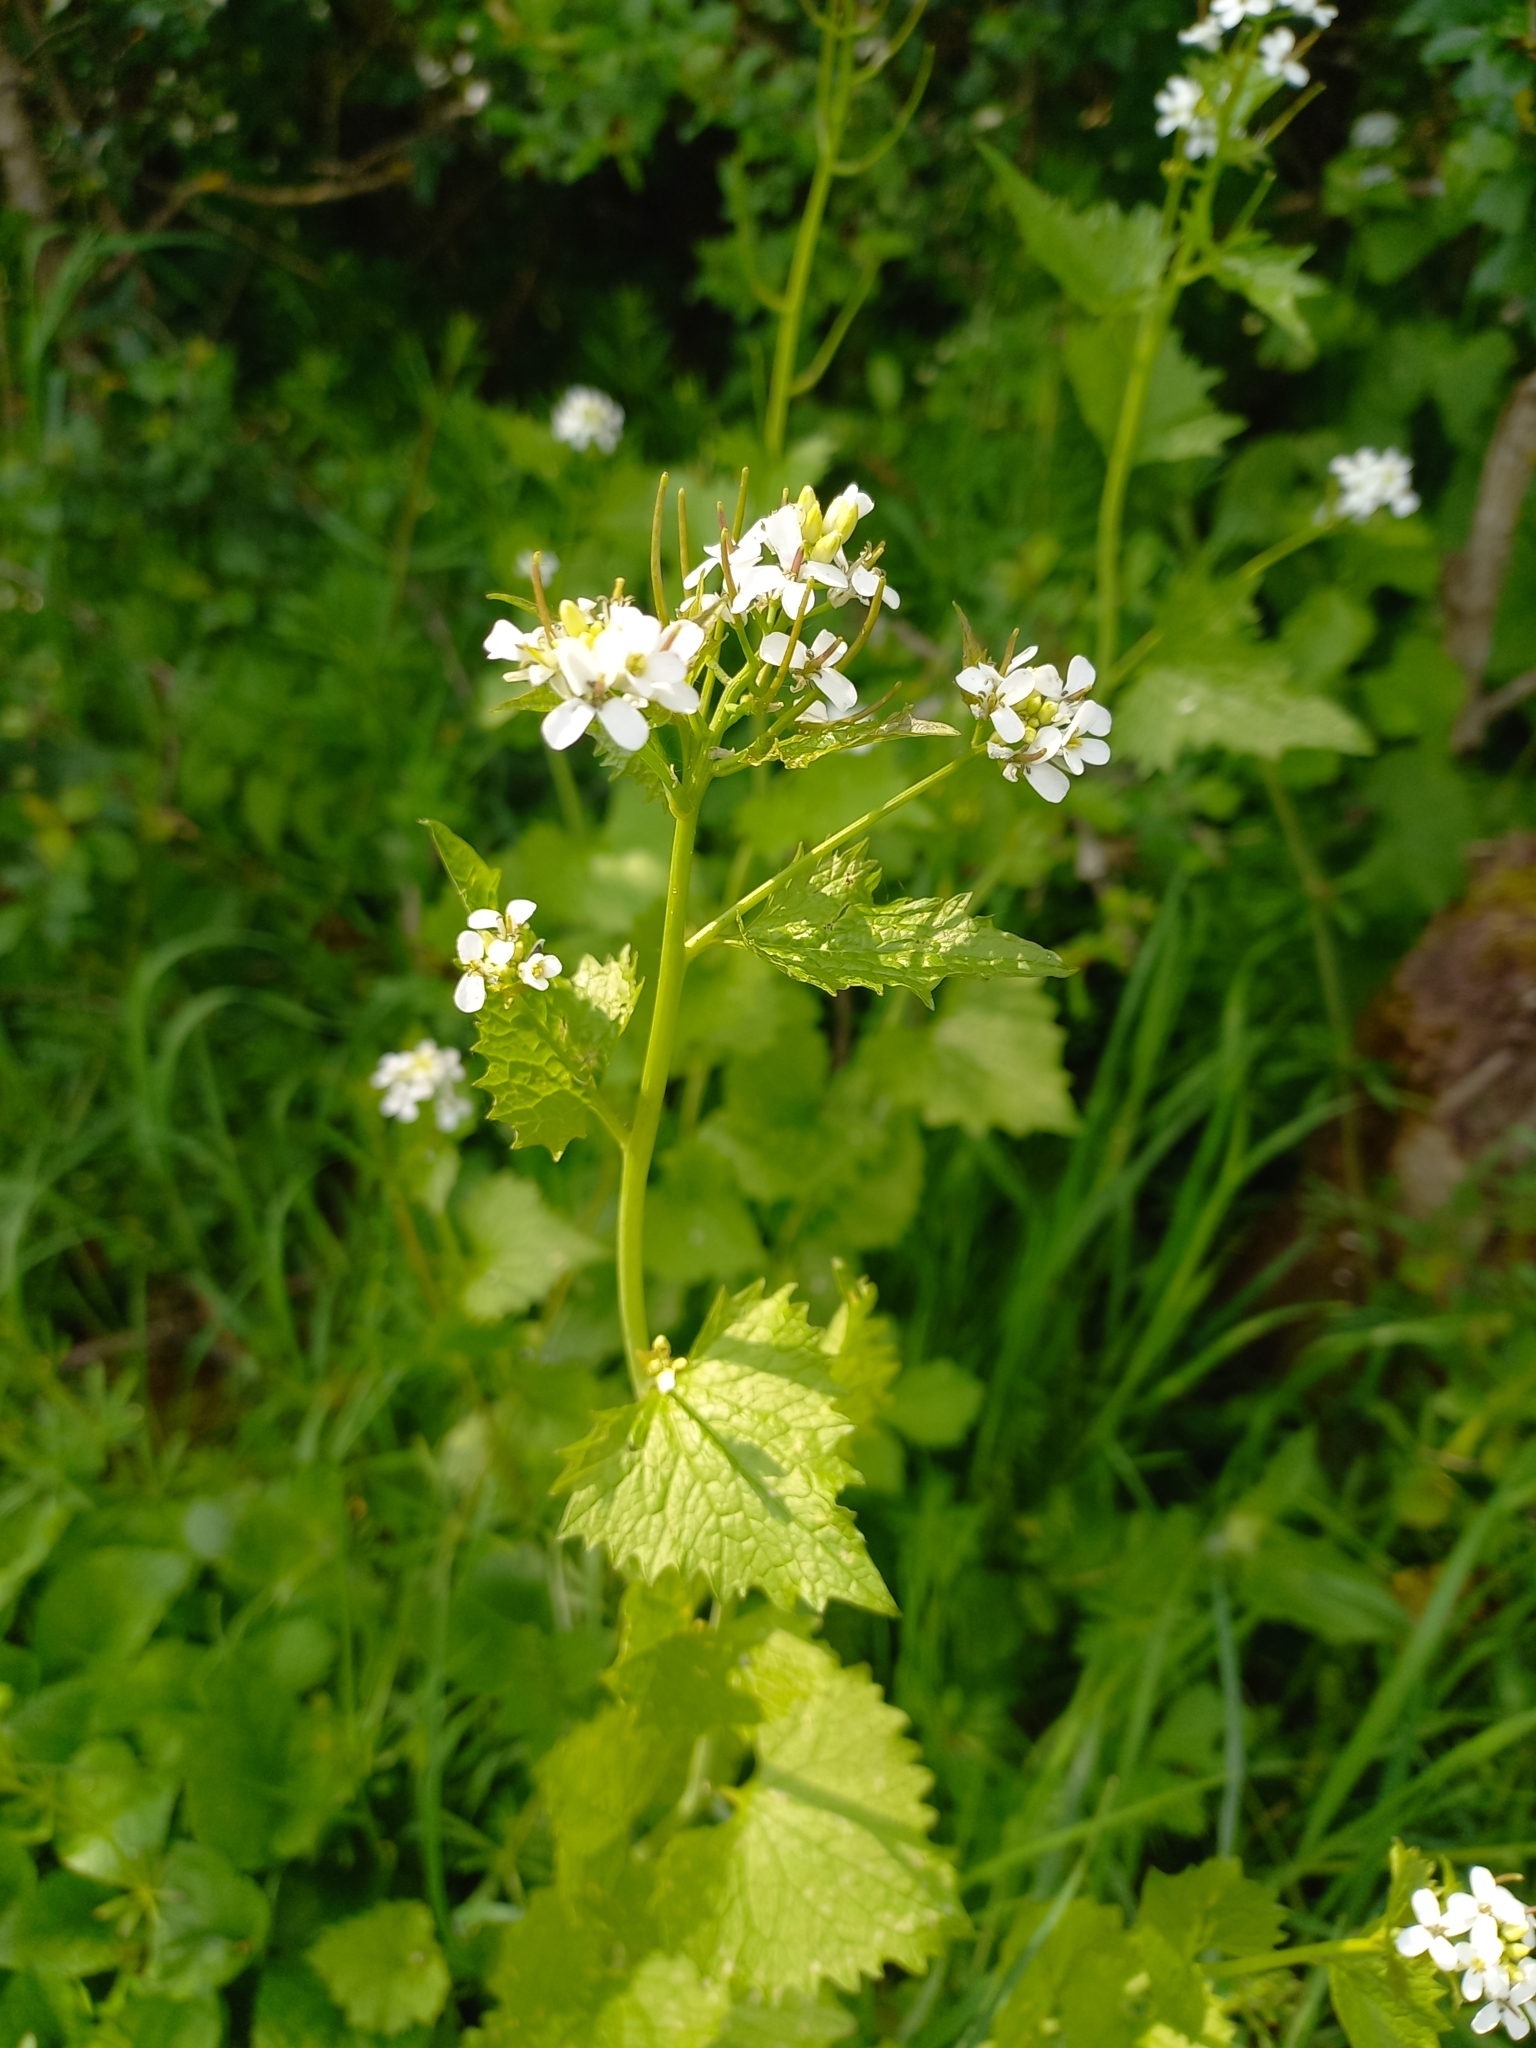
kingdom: Plantae
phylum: Tracheophyta
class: Magnoliopsida
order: Brassicales
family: Brassicaceae
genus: Alliaria
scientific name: Alliaria petiolata
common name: Garlic mustard
